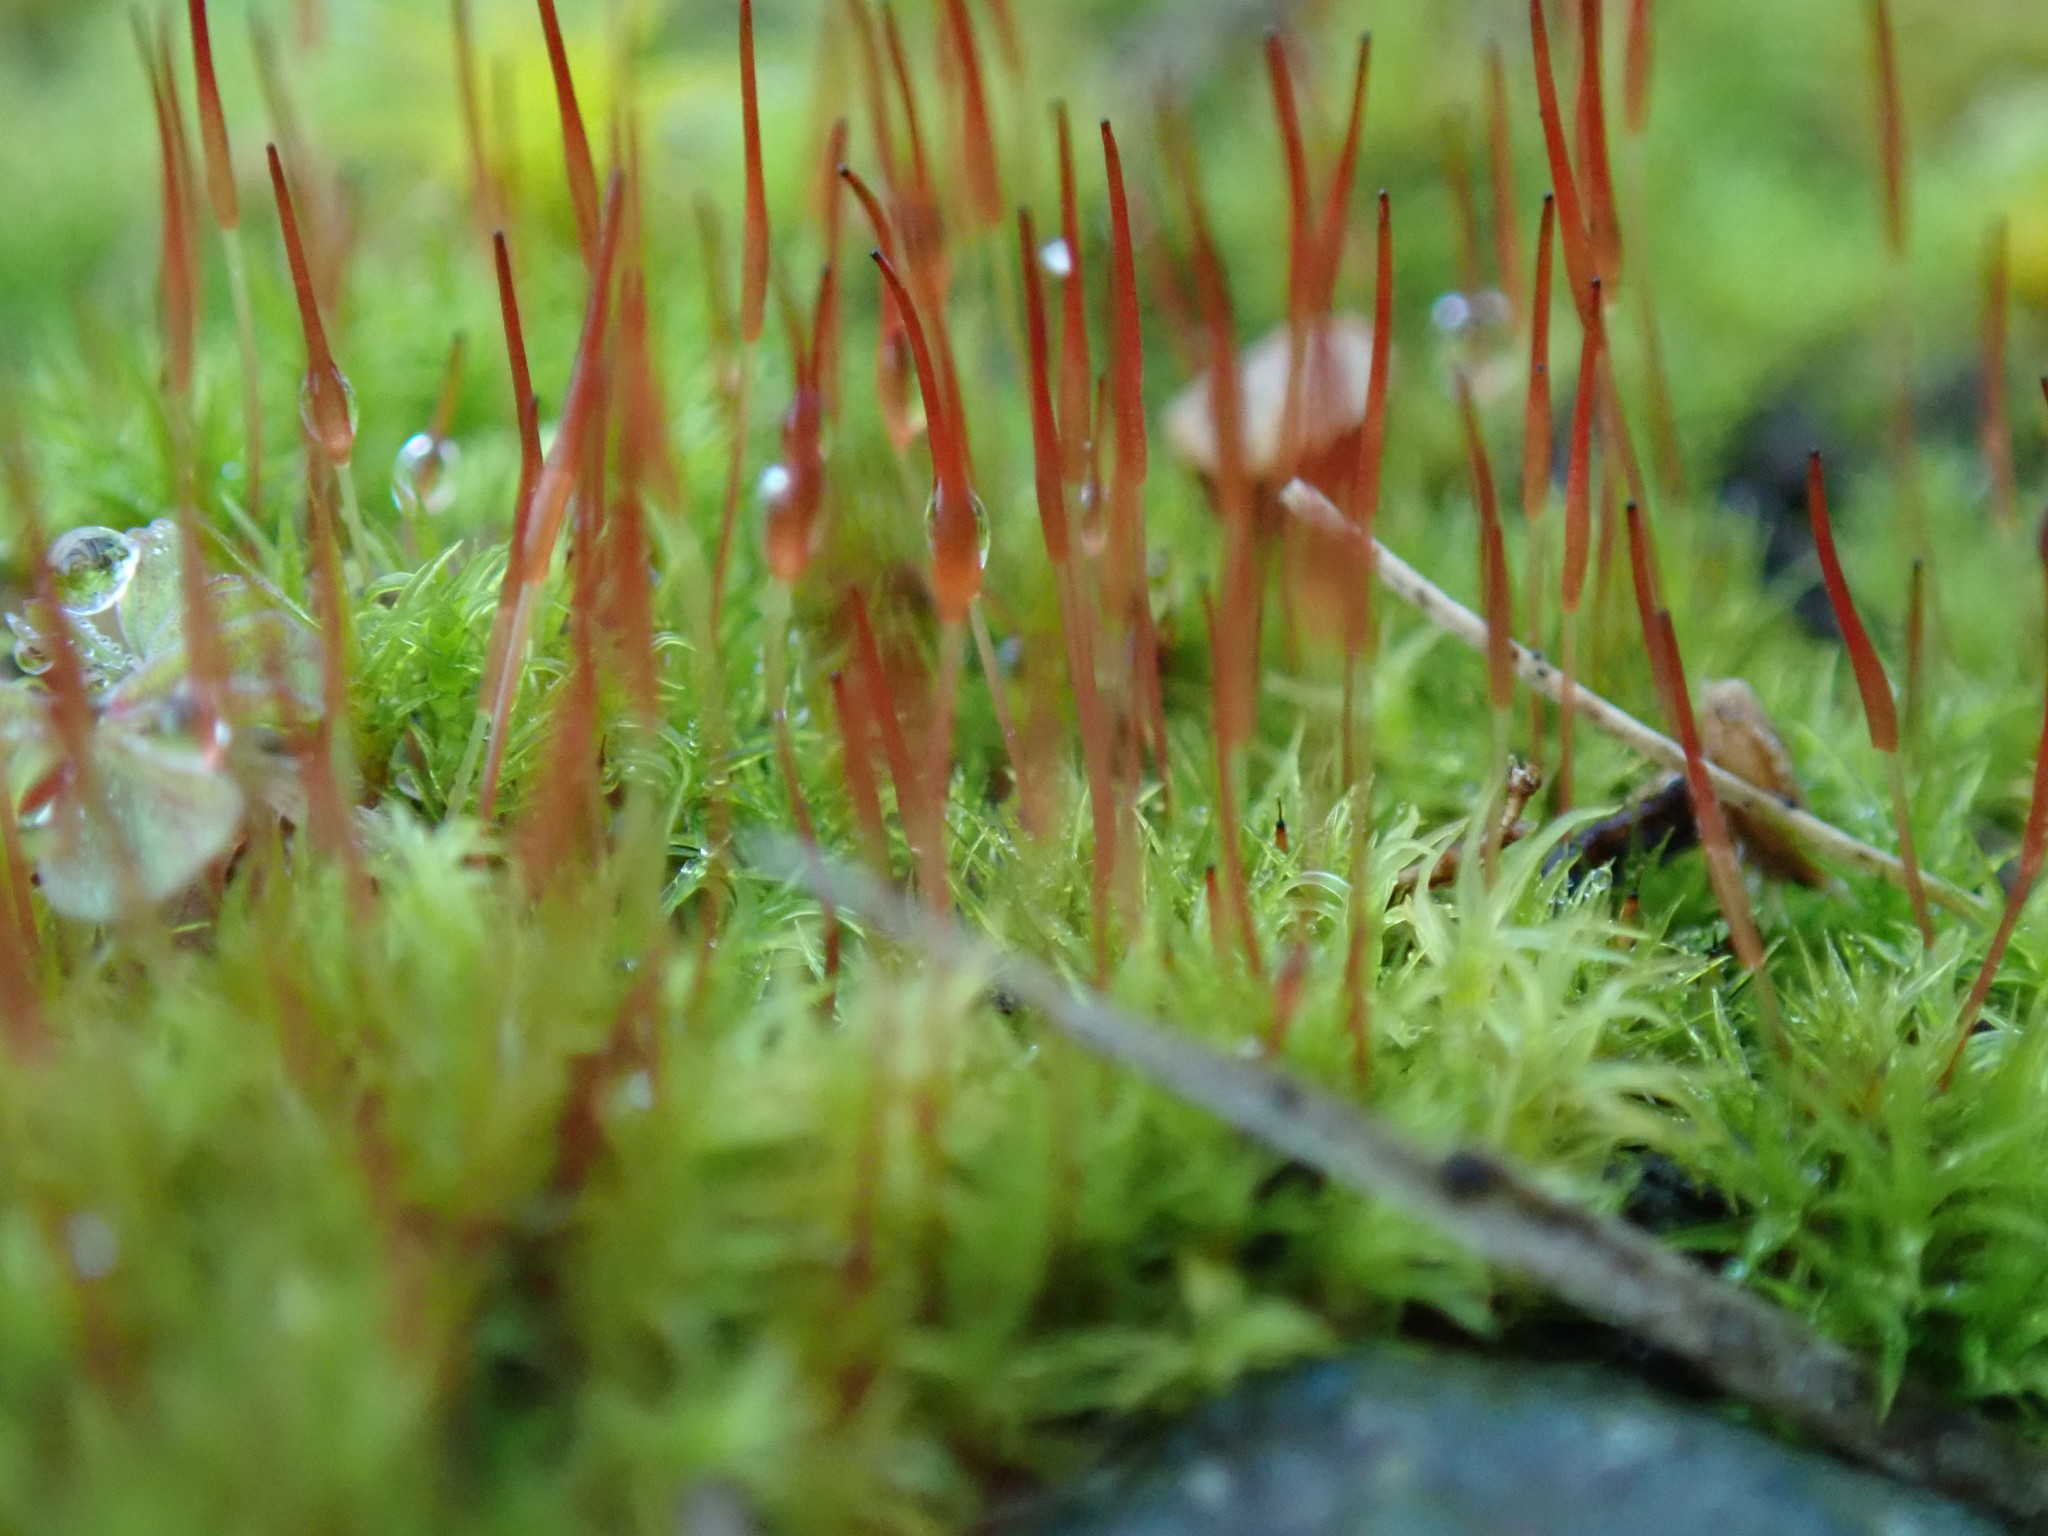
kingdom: Plantae
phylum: Bryophyta
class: Bryopsida
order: Dicranales
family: Ditrichaceae
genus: Ceratodon
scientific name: Ceratodon purpureus
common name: Redshank
